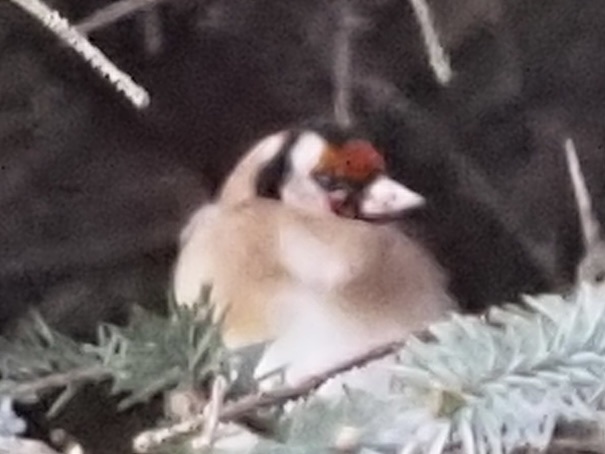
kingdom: Animalia
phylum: Chordata
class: Aves
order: Passeriformes
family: Fringillidae
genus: Carduelis
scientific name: Carduelis carduelis
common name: European goldfinch
